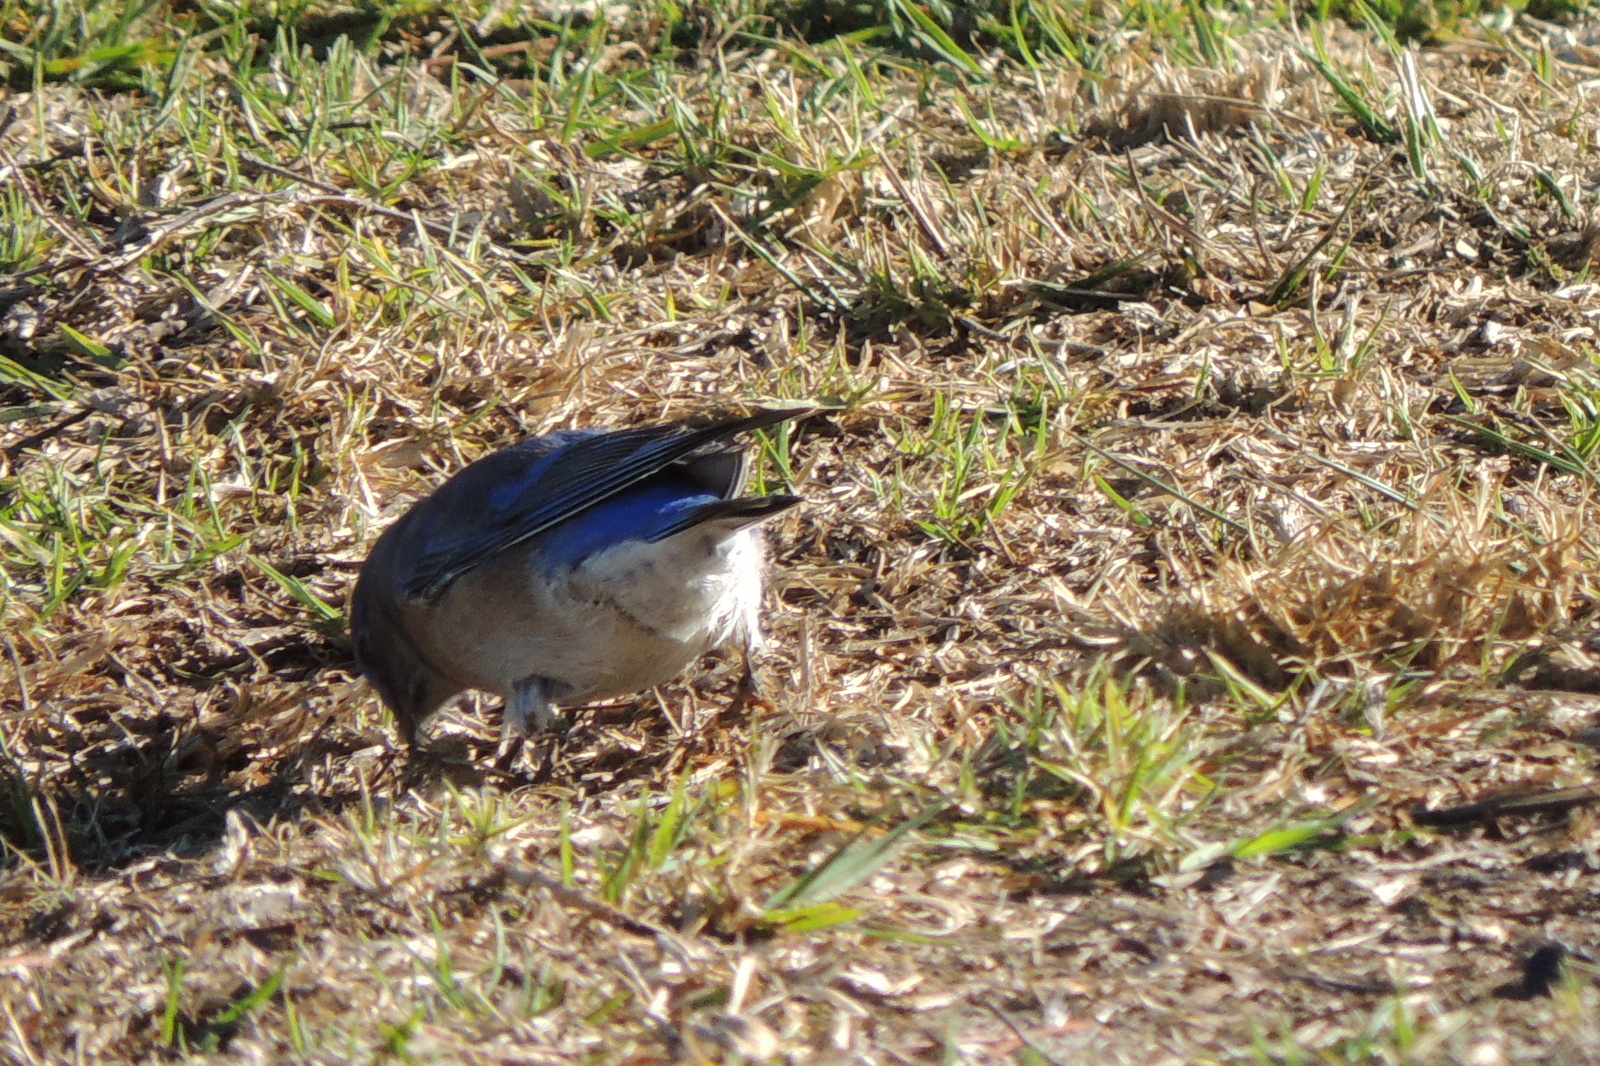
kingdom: Animalia
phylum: Chordata
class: Aves
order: Passeriformes
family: Turdidae
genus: Sialia
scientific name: Sialia mexicana
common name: Western bluebird
